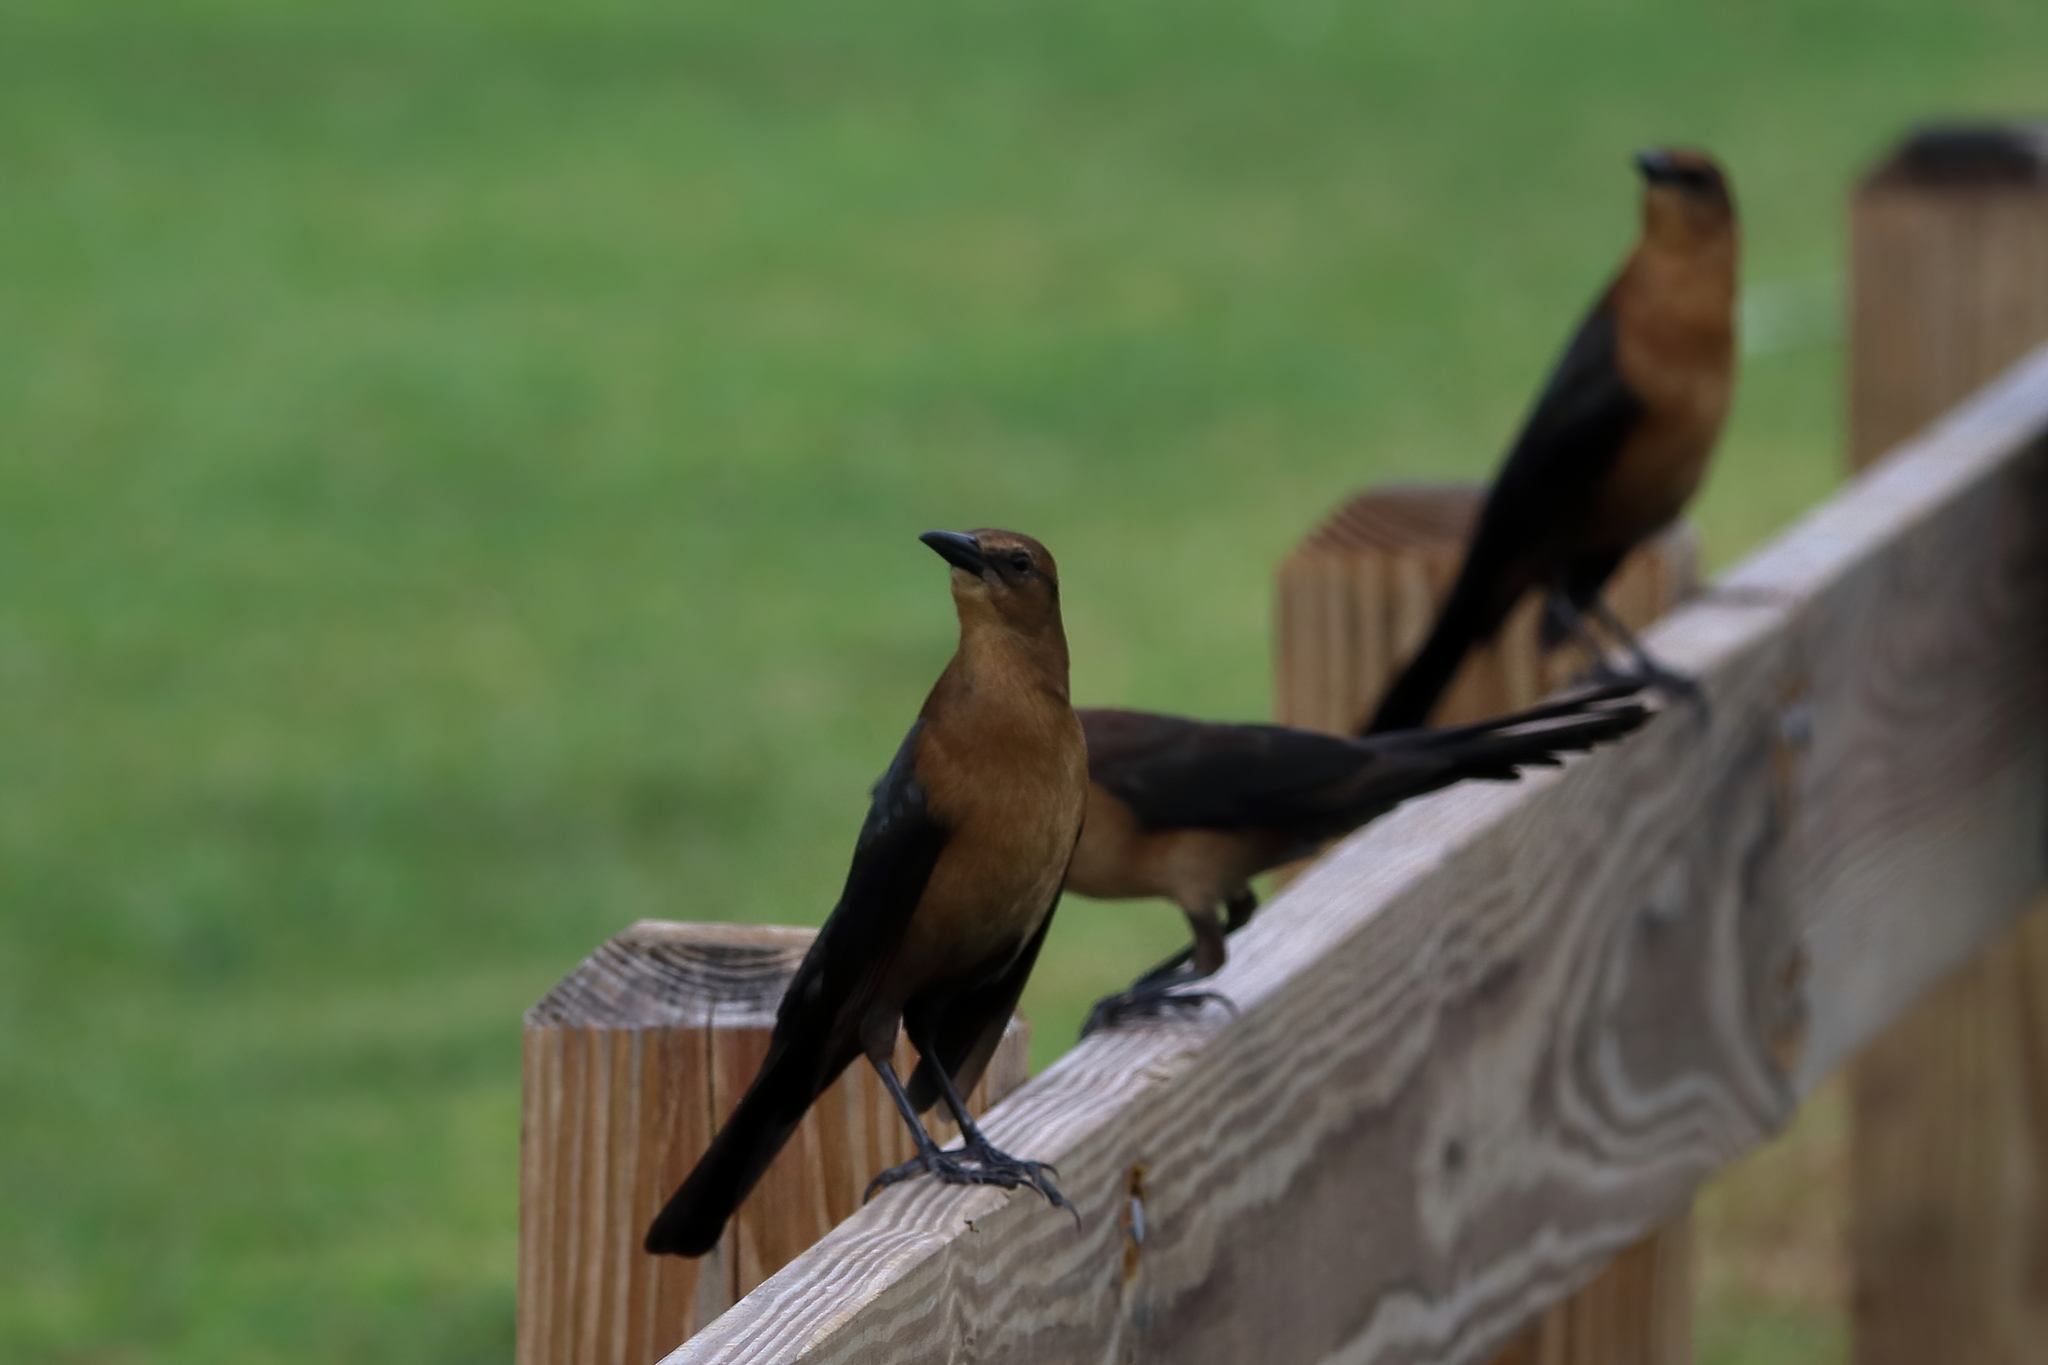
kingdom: Animalia
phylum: Chordata
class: Aves
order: Passeriformes
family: Icteridae
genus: Quiscalus
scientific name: Quiscalus major
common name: Boat-tailed grackle
